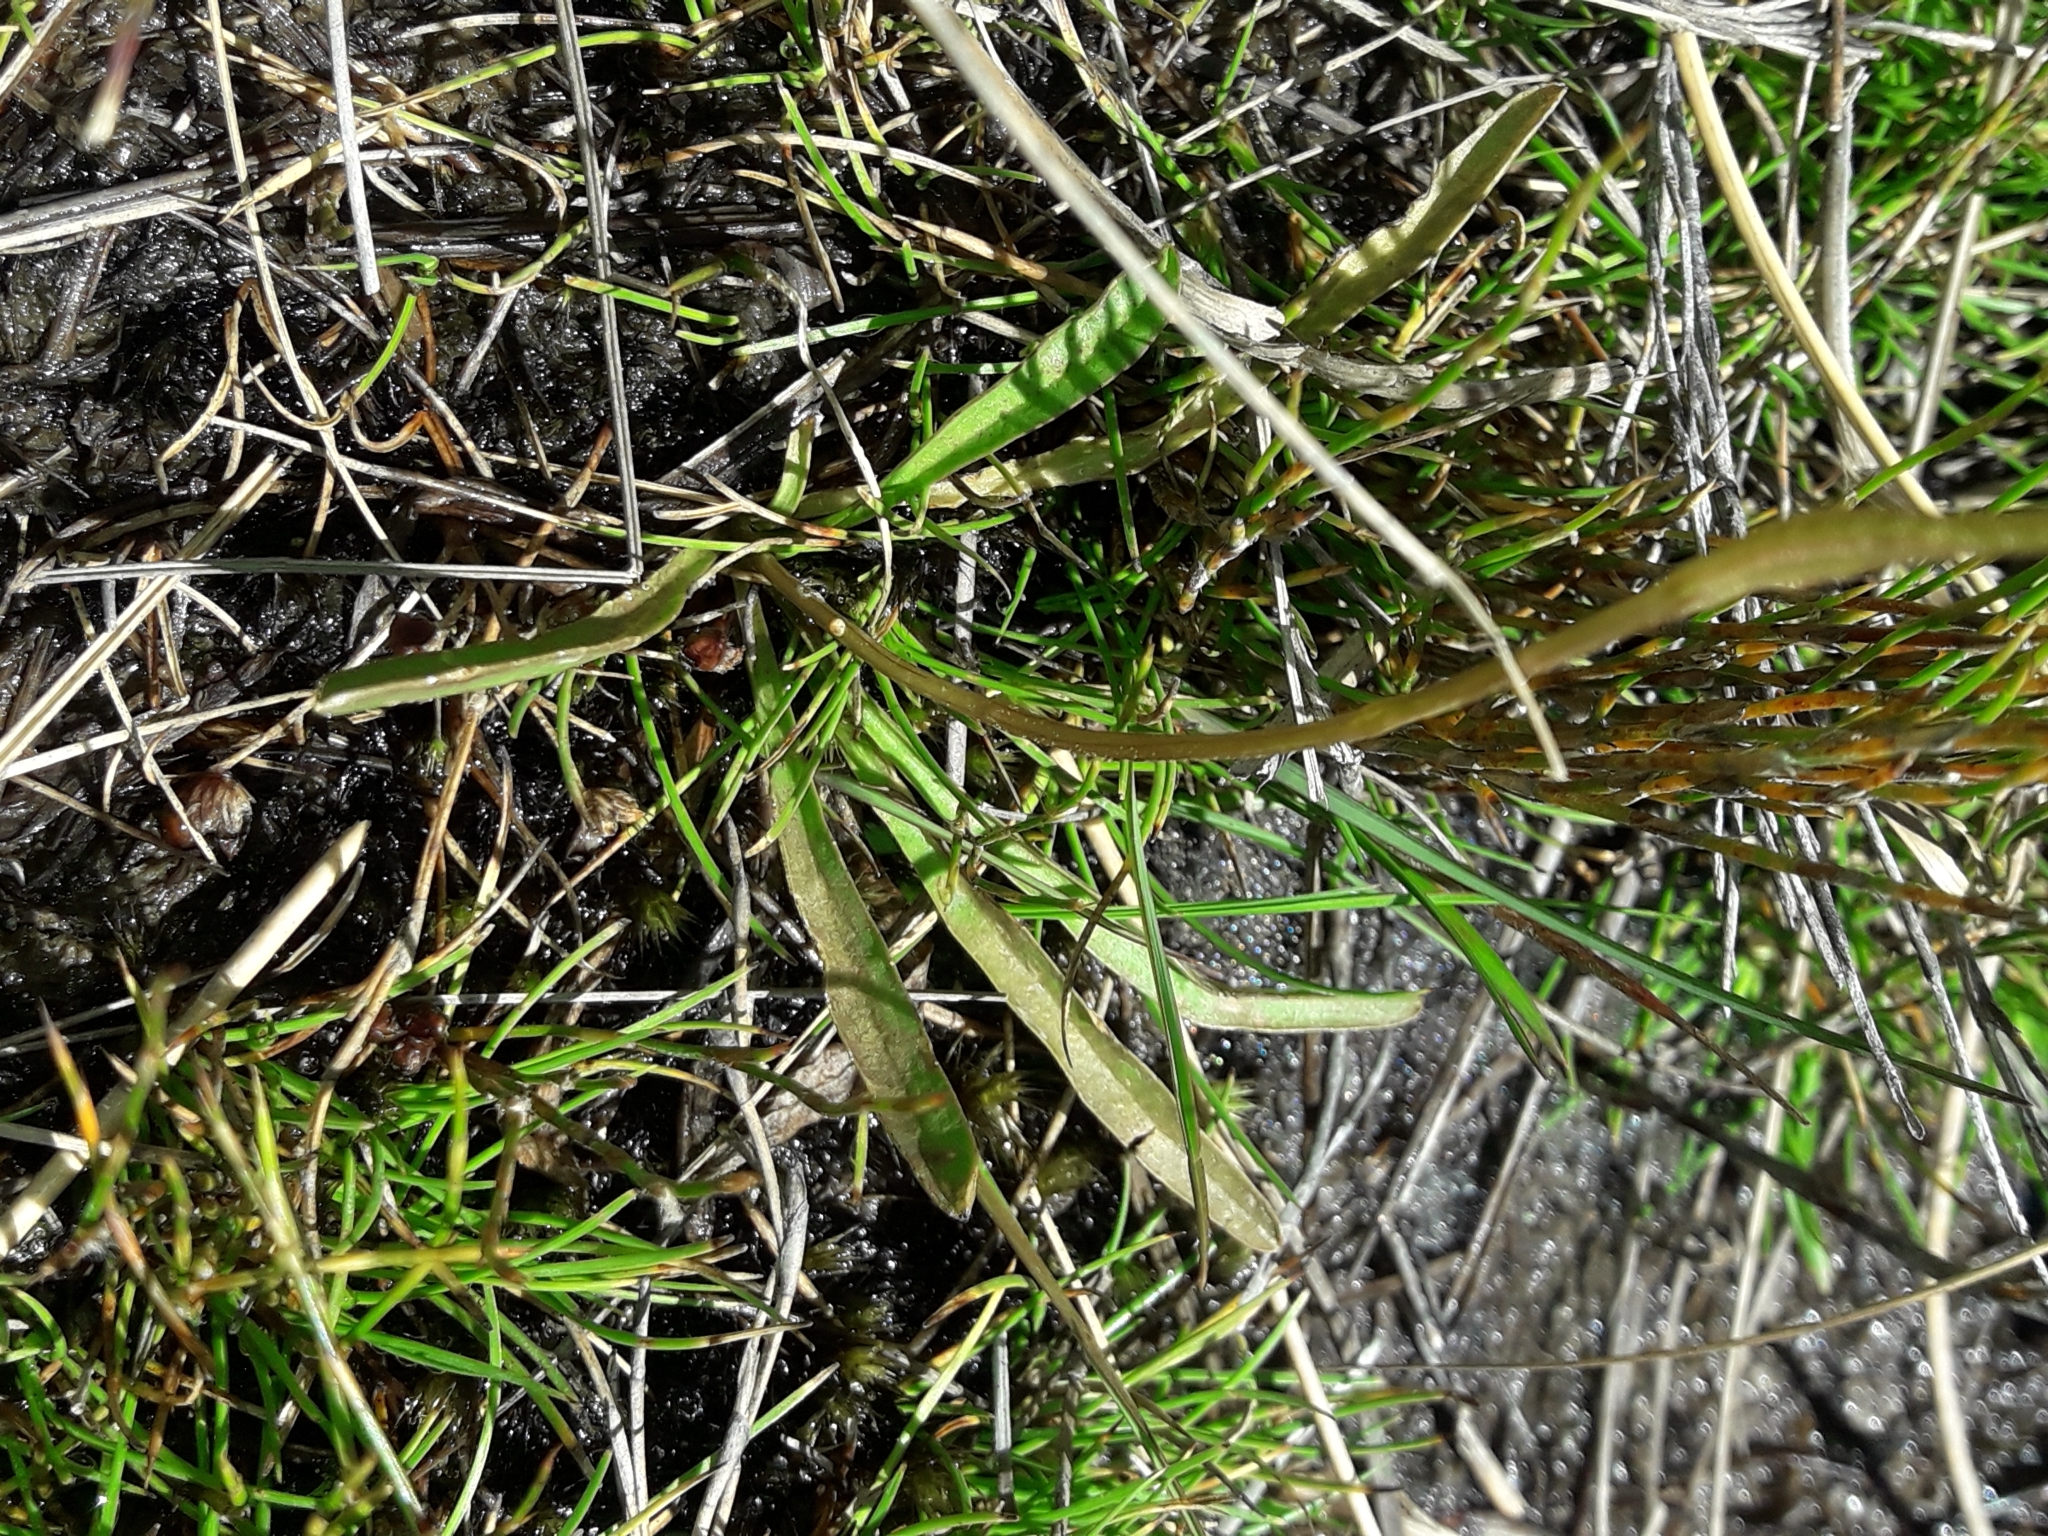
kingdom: Plantae
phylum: Tracheophyta
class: Magnoliopsida
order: Asterales
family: Asteraceae
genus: Microseris
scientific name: Microseris scapigera
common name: Yam daisy
